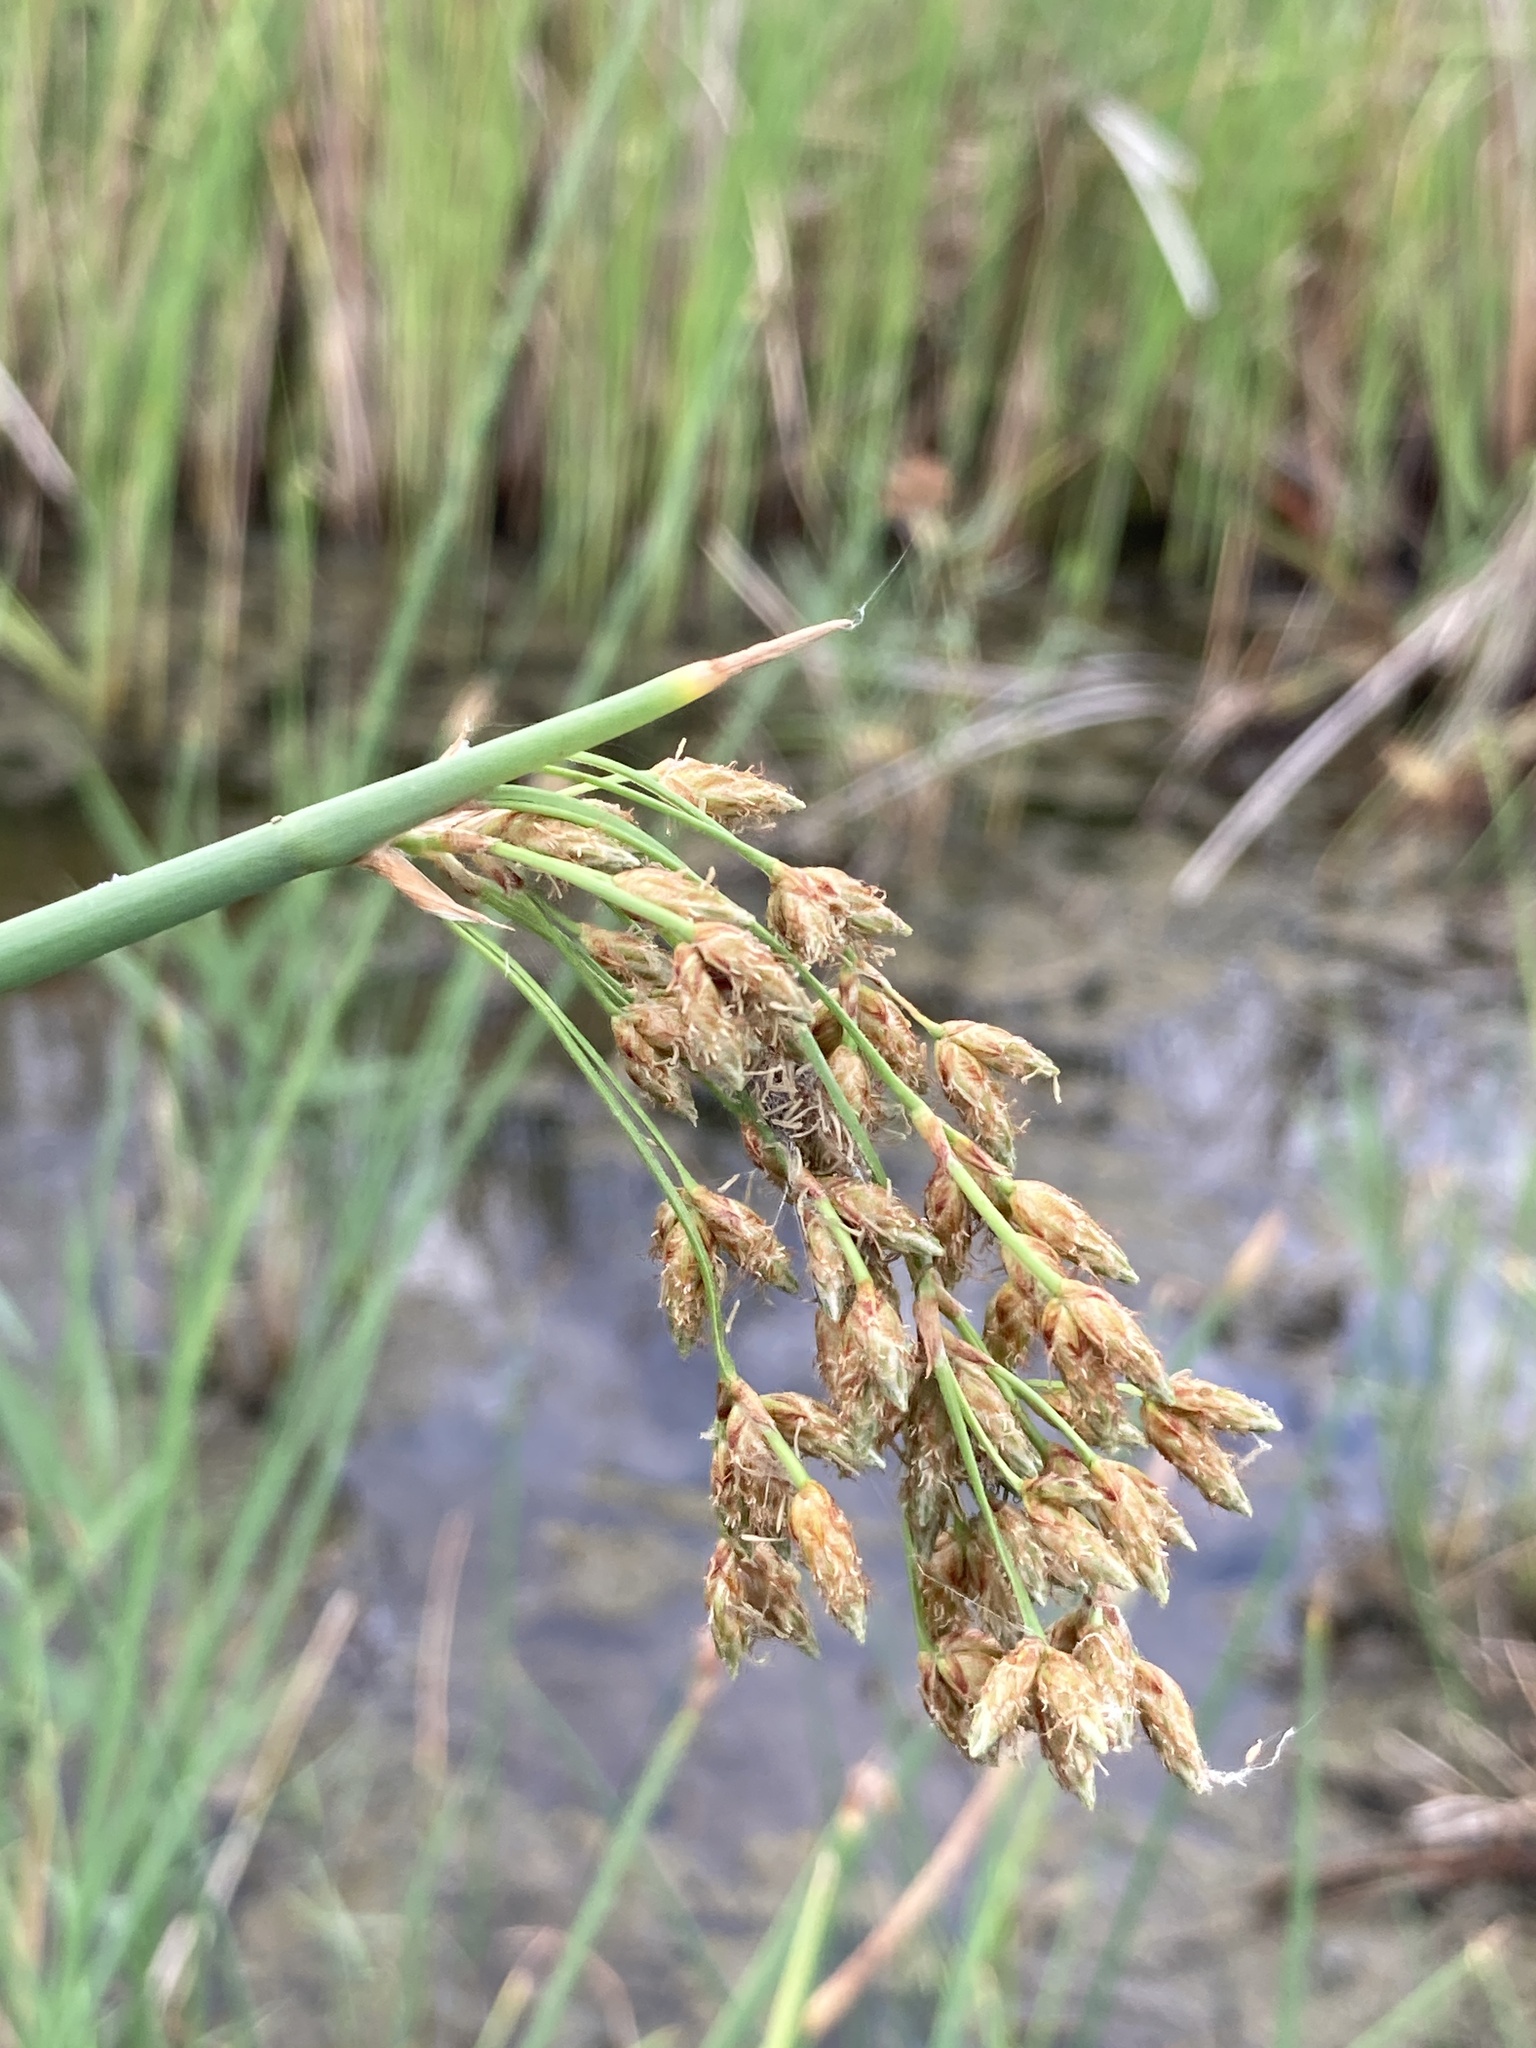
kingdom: Plantae
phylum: Tracheophyta
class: Liliopsida
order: Poales
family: Cyperaceae
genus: Schoenoplectus
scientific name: Schoenoplectus lacustris
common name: Common club-rush
